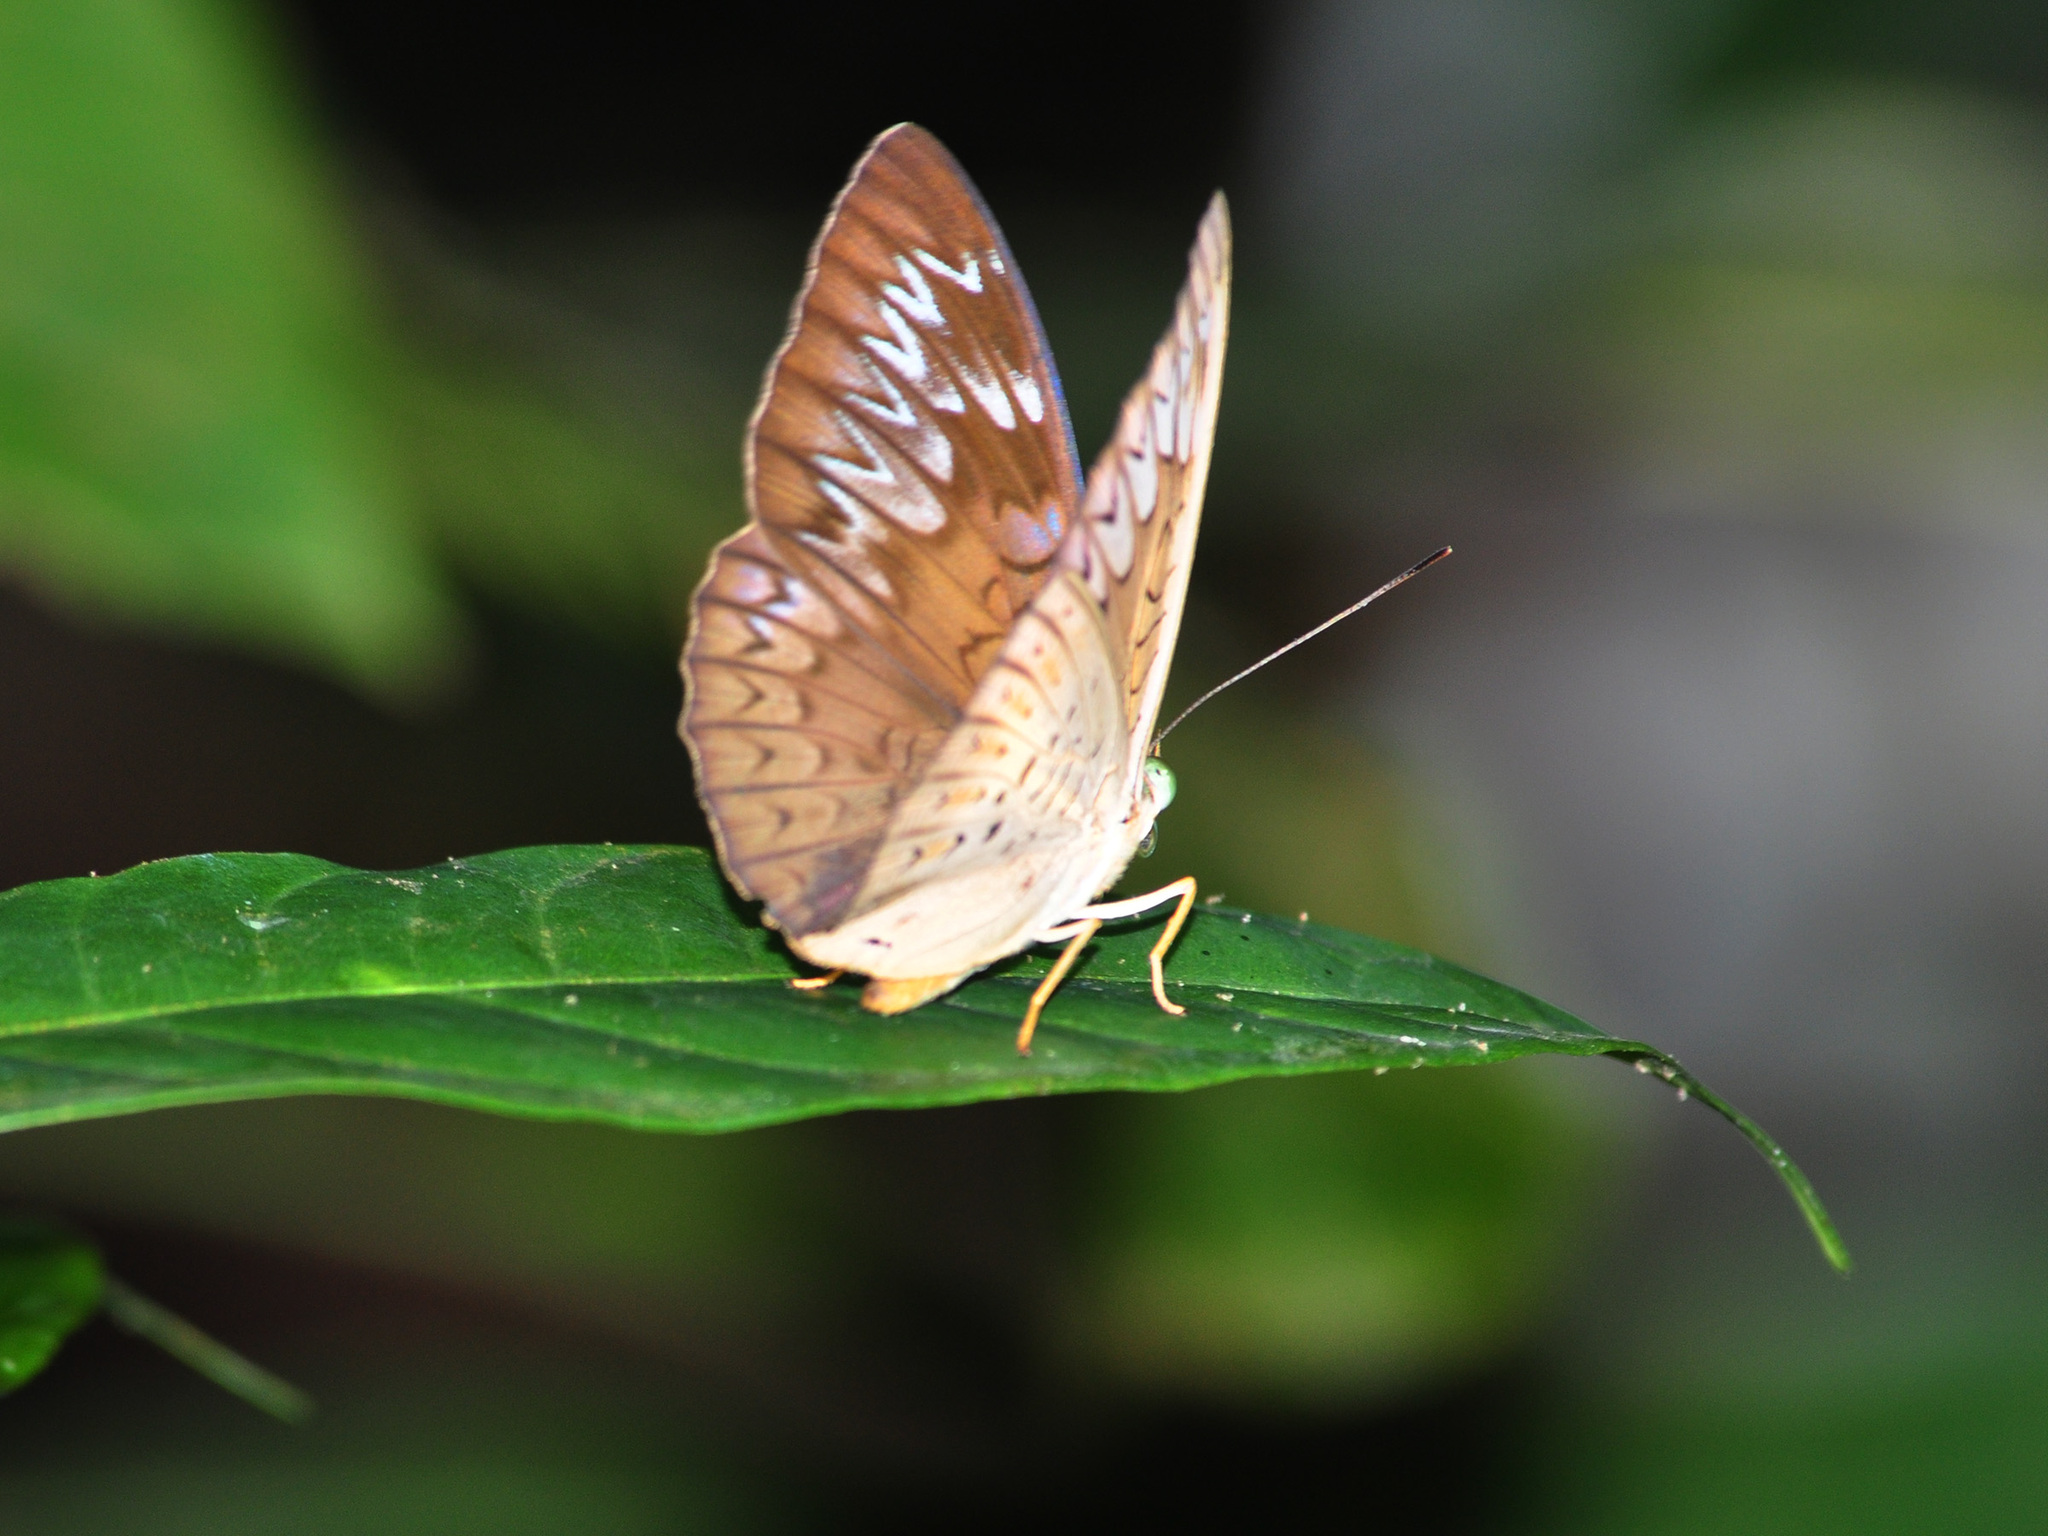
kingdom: Animalia
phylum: Arthropoda
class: Insecta
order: Lepidoptera
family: Nymphalidae
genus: Tanaecia
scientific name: Tanaecia pelea
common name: Malay viscount
